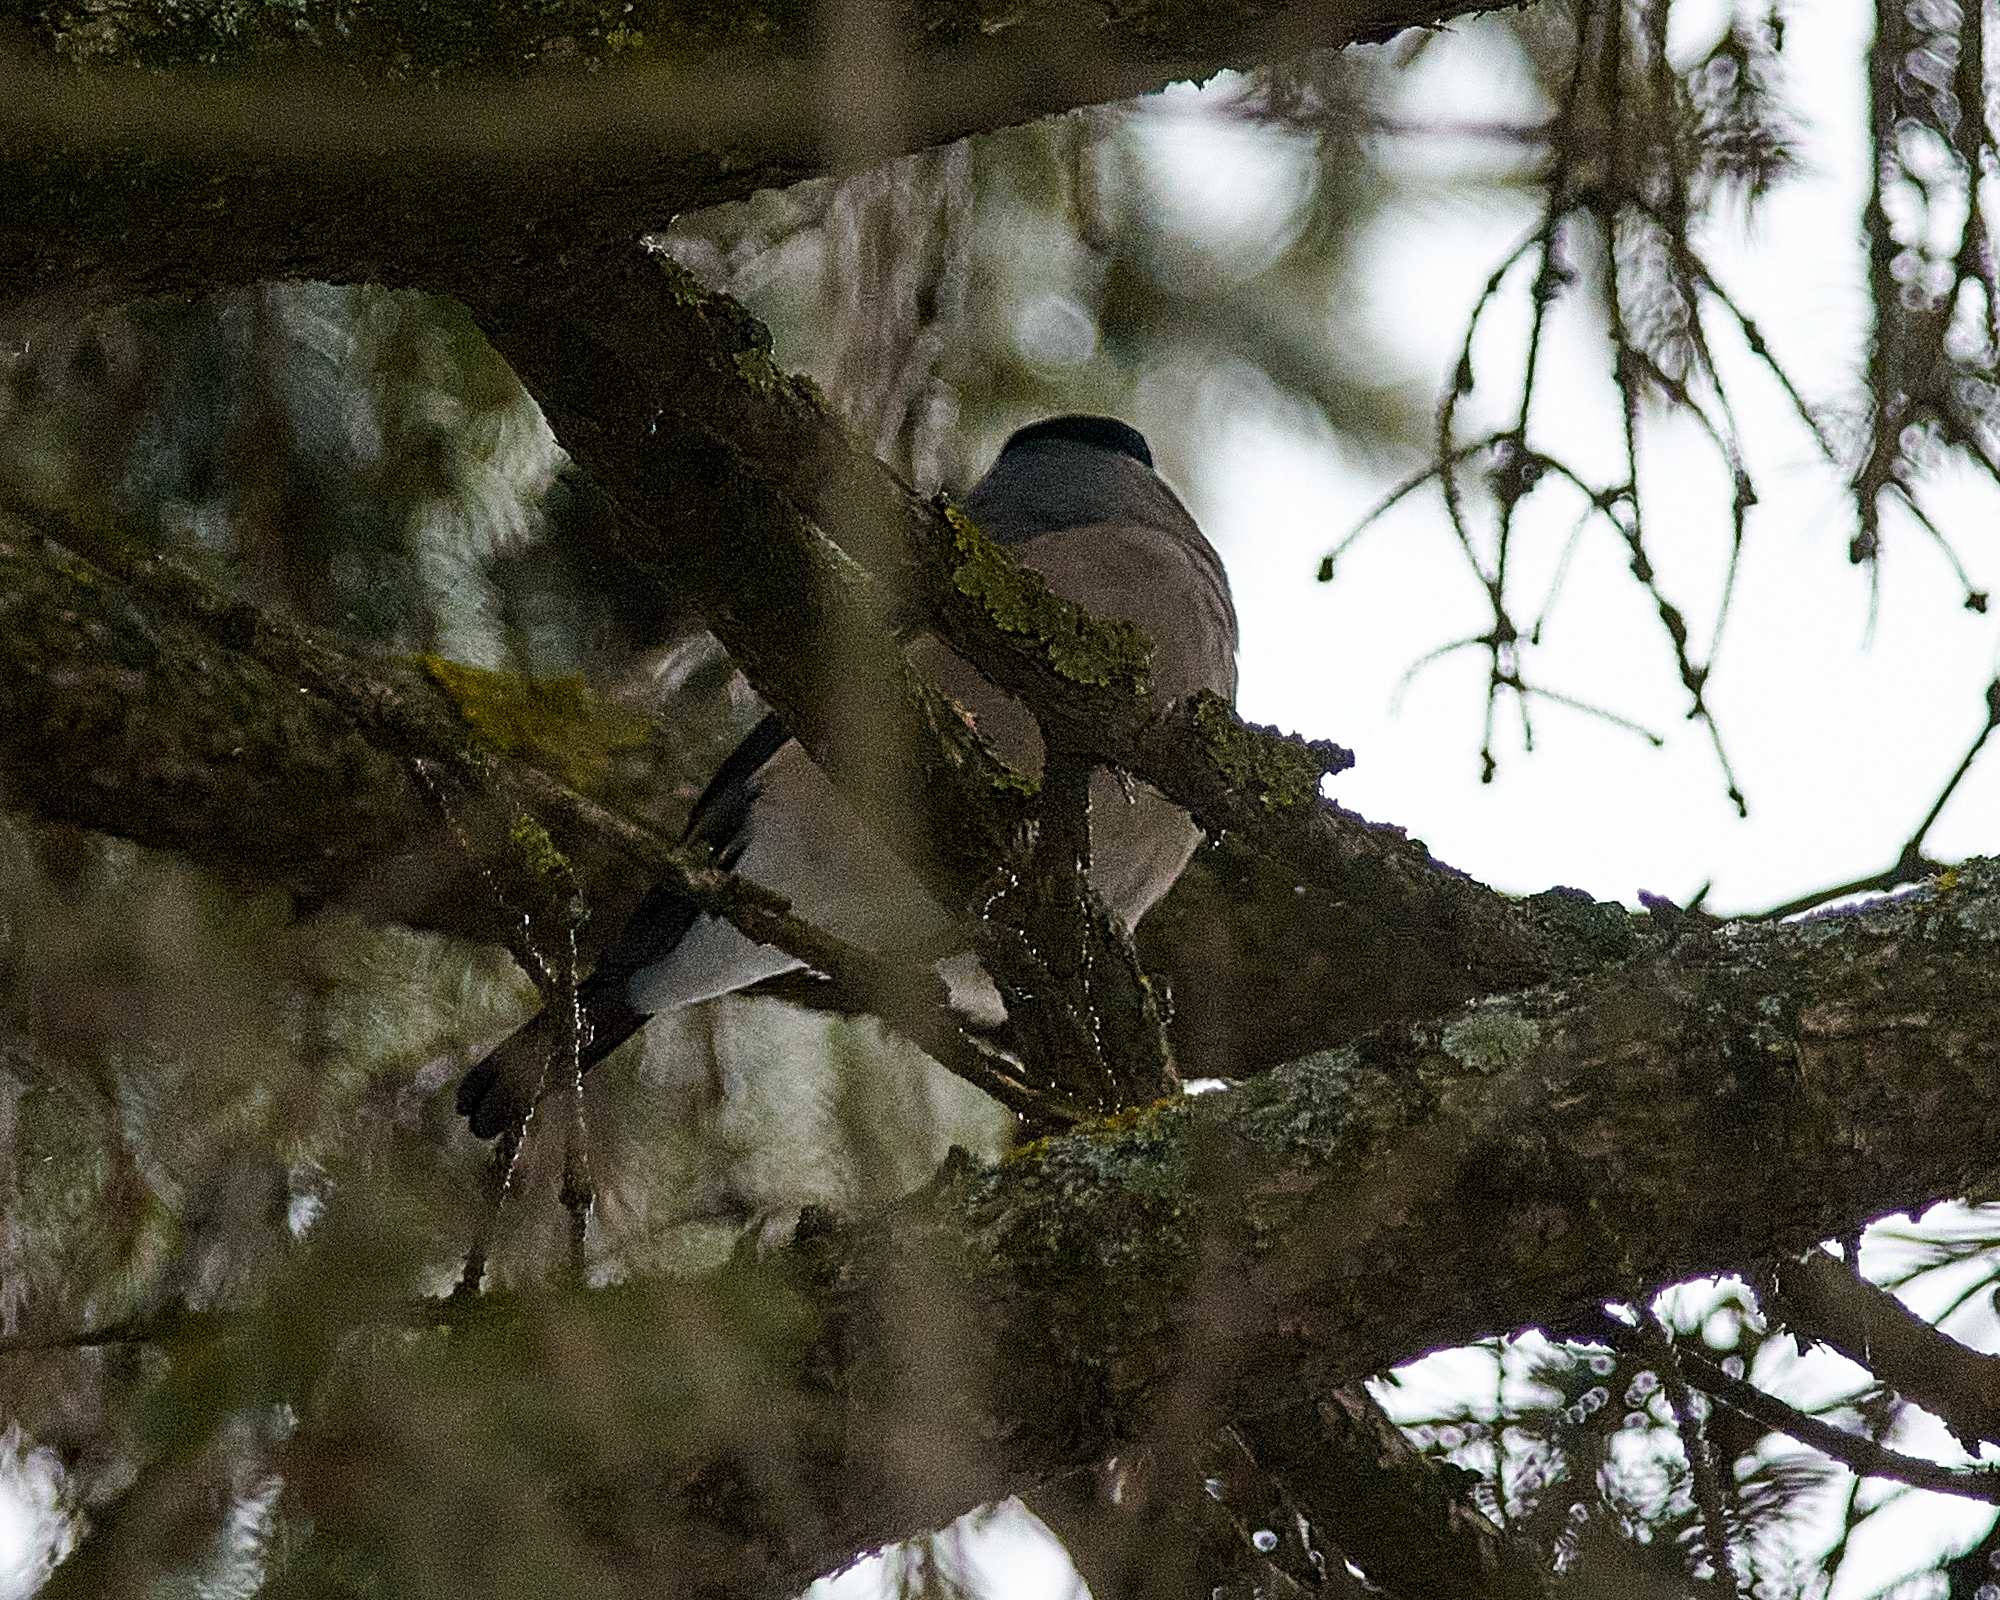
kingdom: Animalia
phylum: Chordata
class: Aves
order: Passeriformes
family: Fringillidae
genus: Pyrrhula
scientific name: Pyrrhula pyrrhula
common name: Eurasian bullfinch
